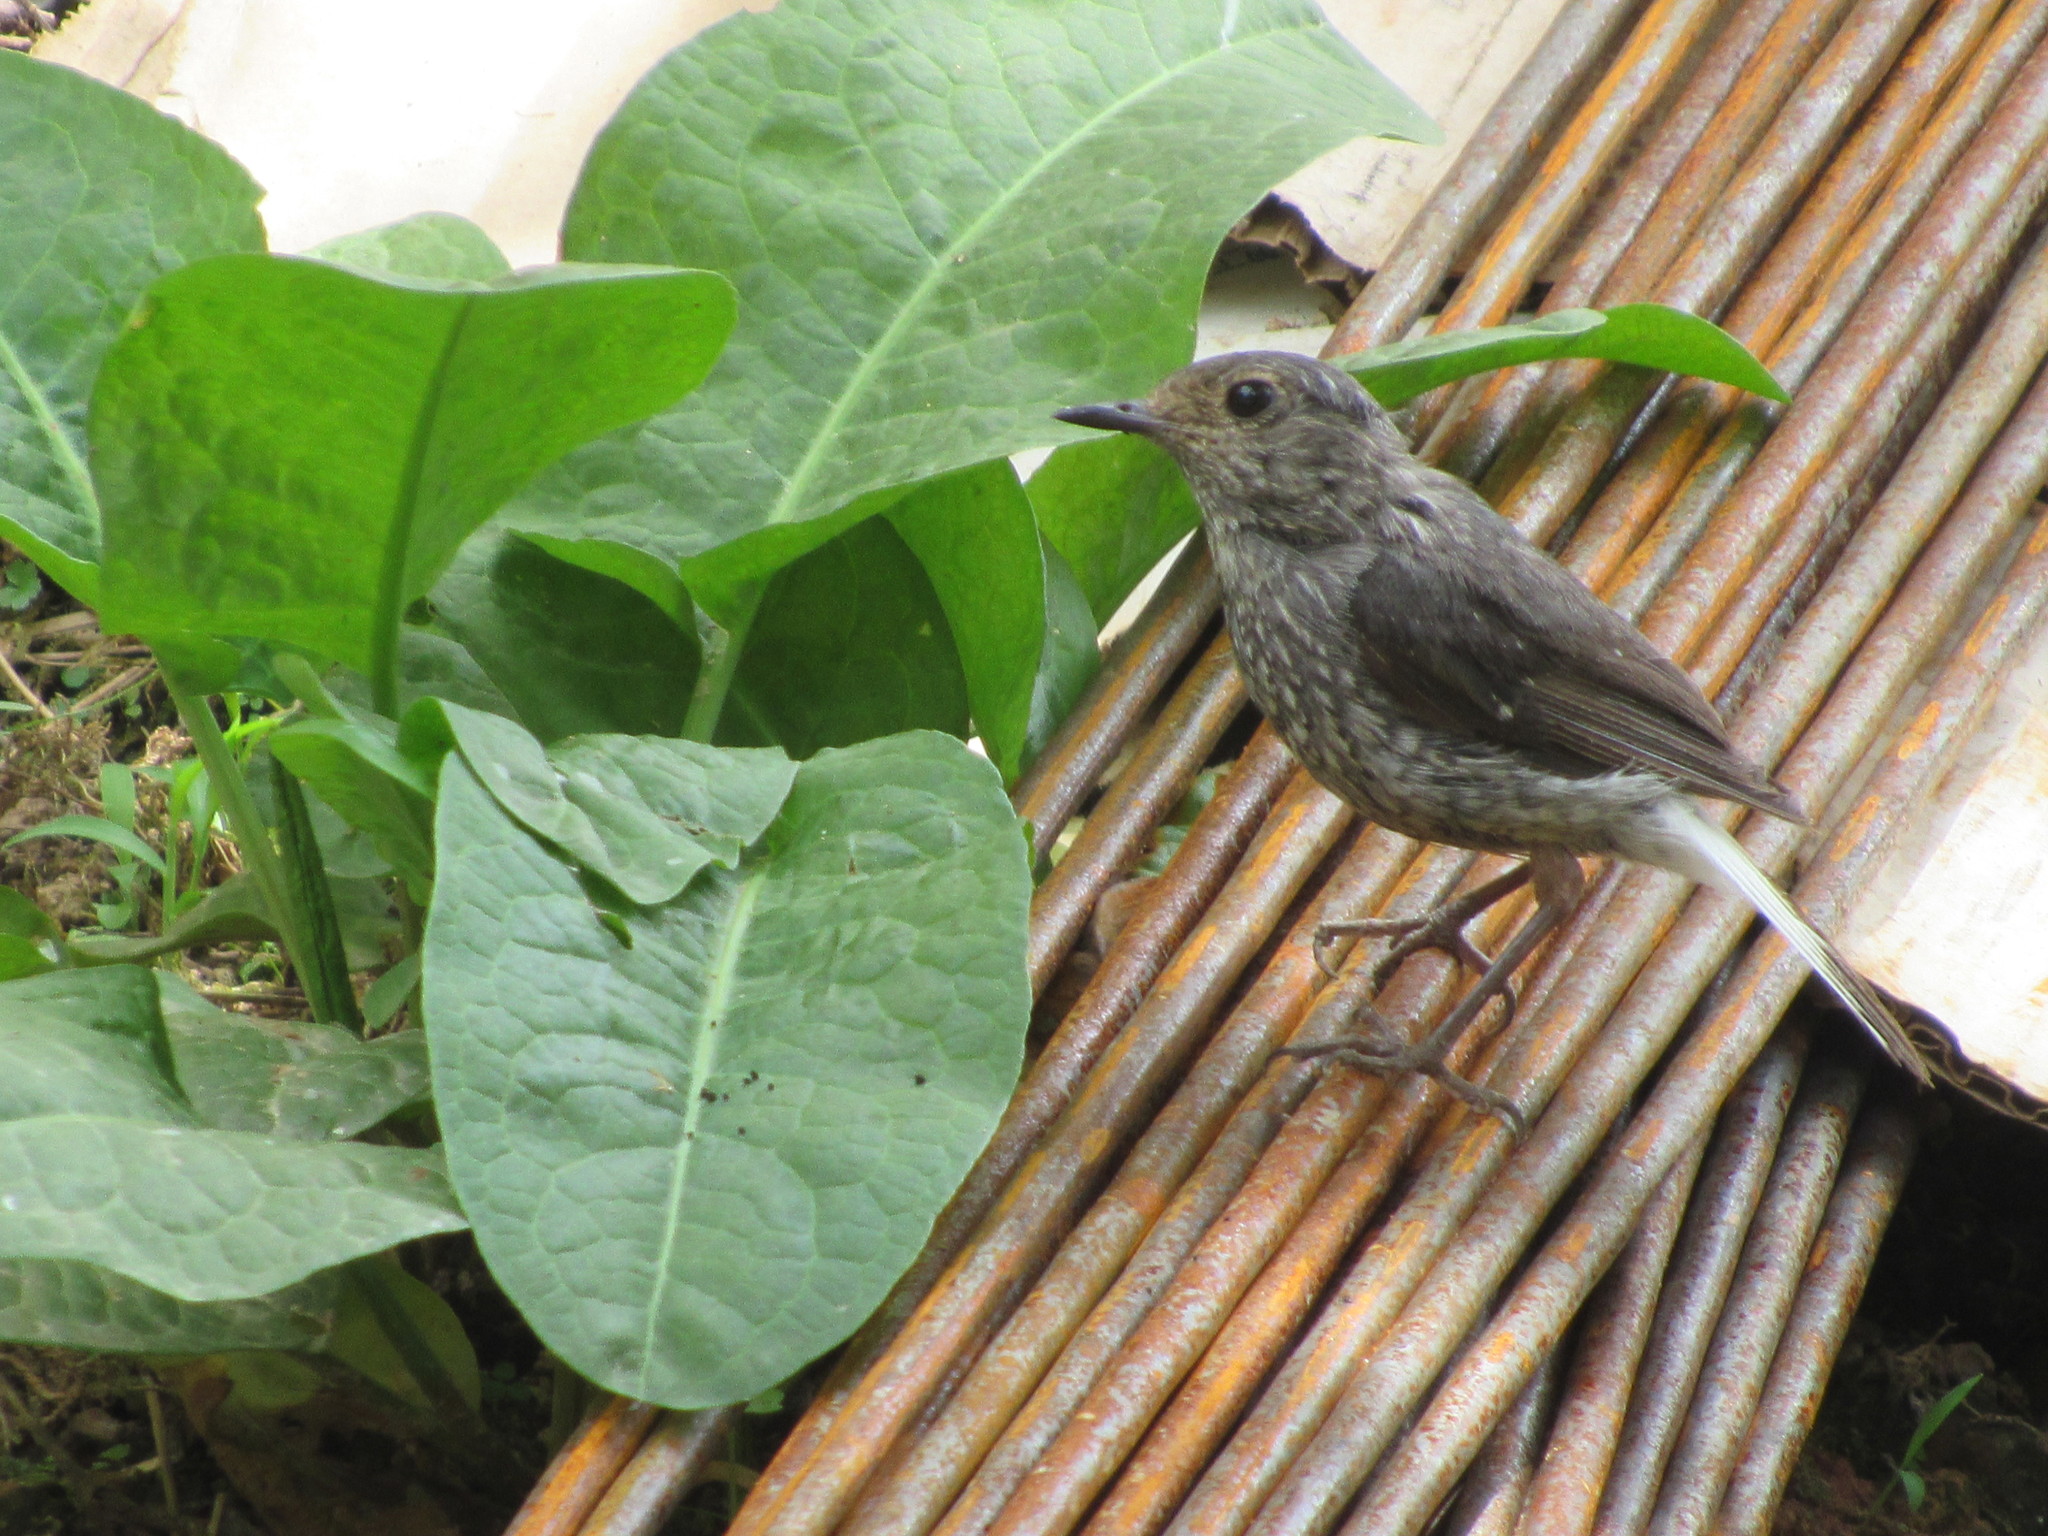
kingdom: Animalia
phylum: Chordata
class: Aves
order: Passeriformes
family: Muscicapidae
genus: Phoenicurus
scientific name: Phoenicurus fuliginosus
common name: Plumbeous water redstart
